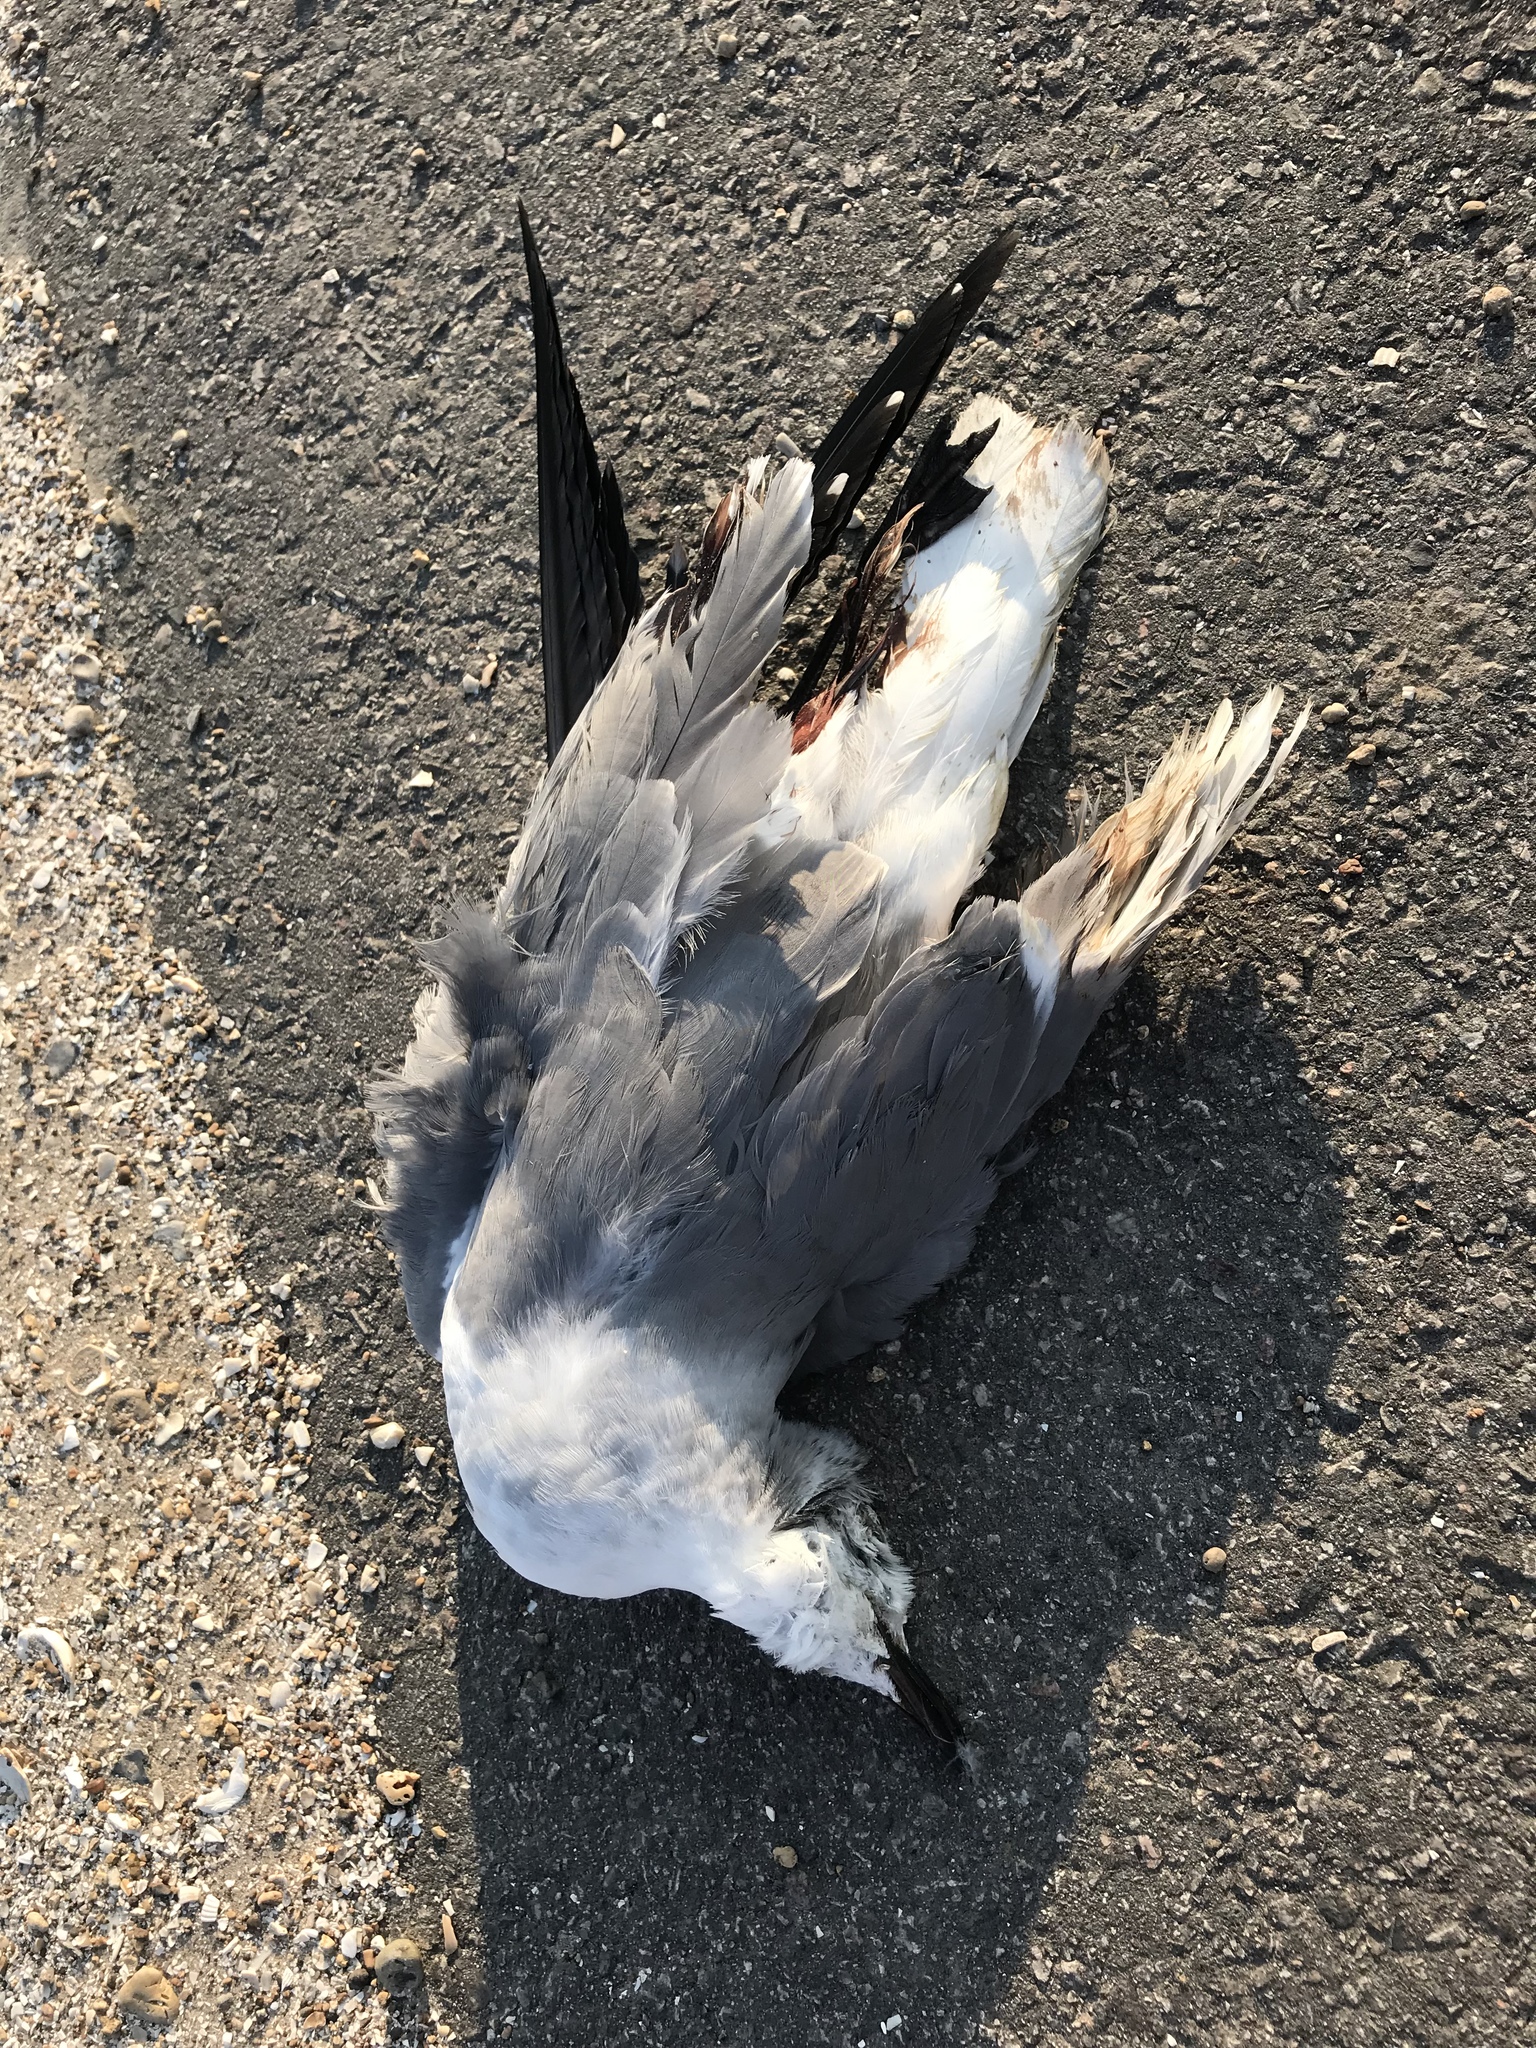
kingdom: Animalia
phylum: Chordata
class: Aves
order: Charadriiformes
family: Laridae
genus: Leucophaeus
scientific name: Leucophaeus atricilla
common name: Laughing gull
